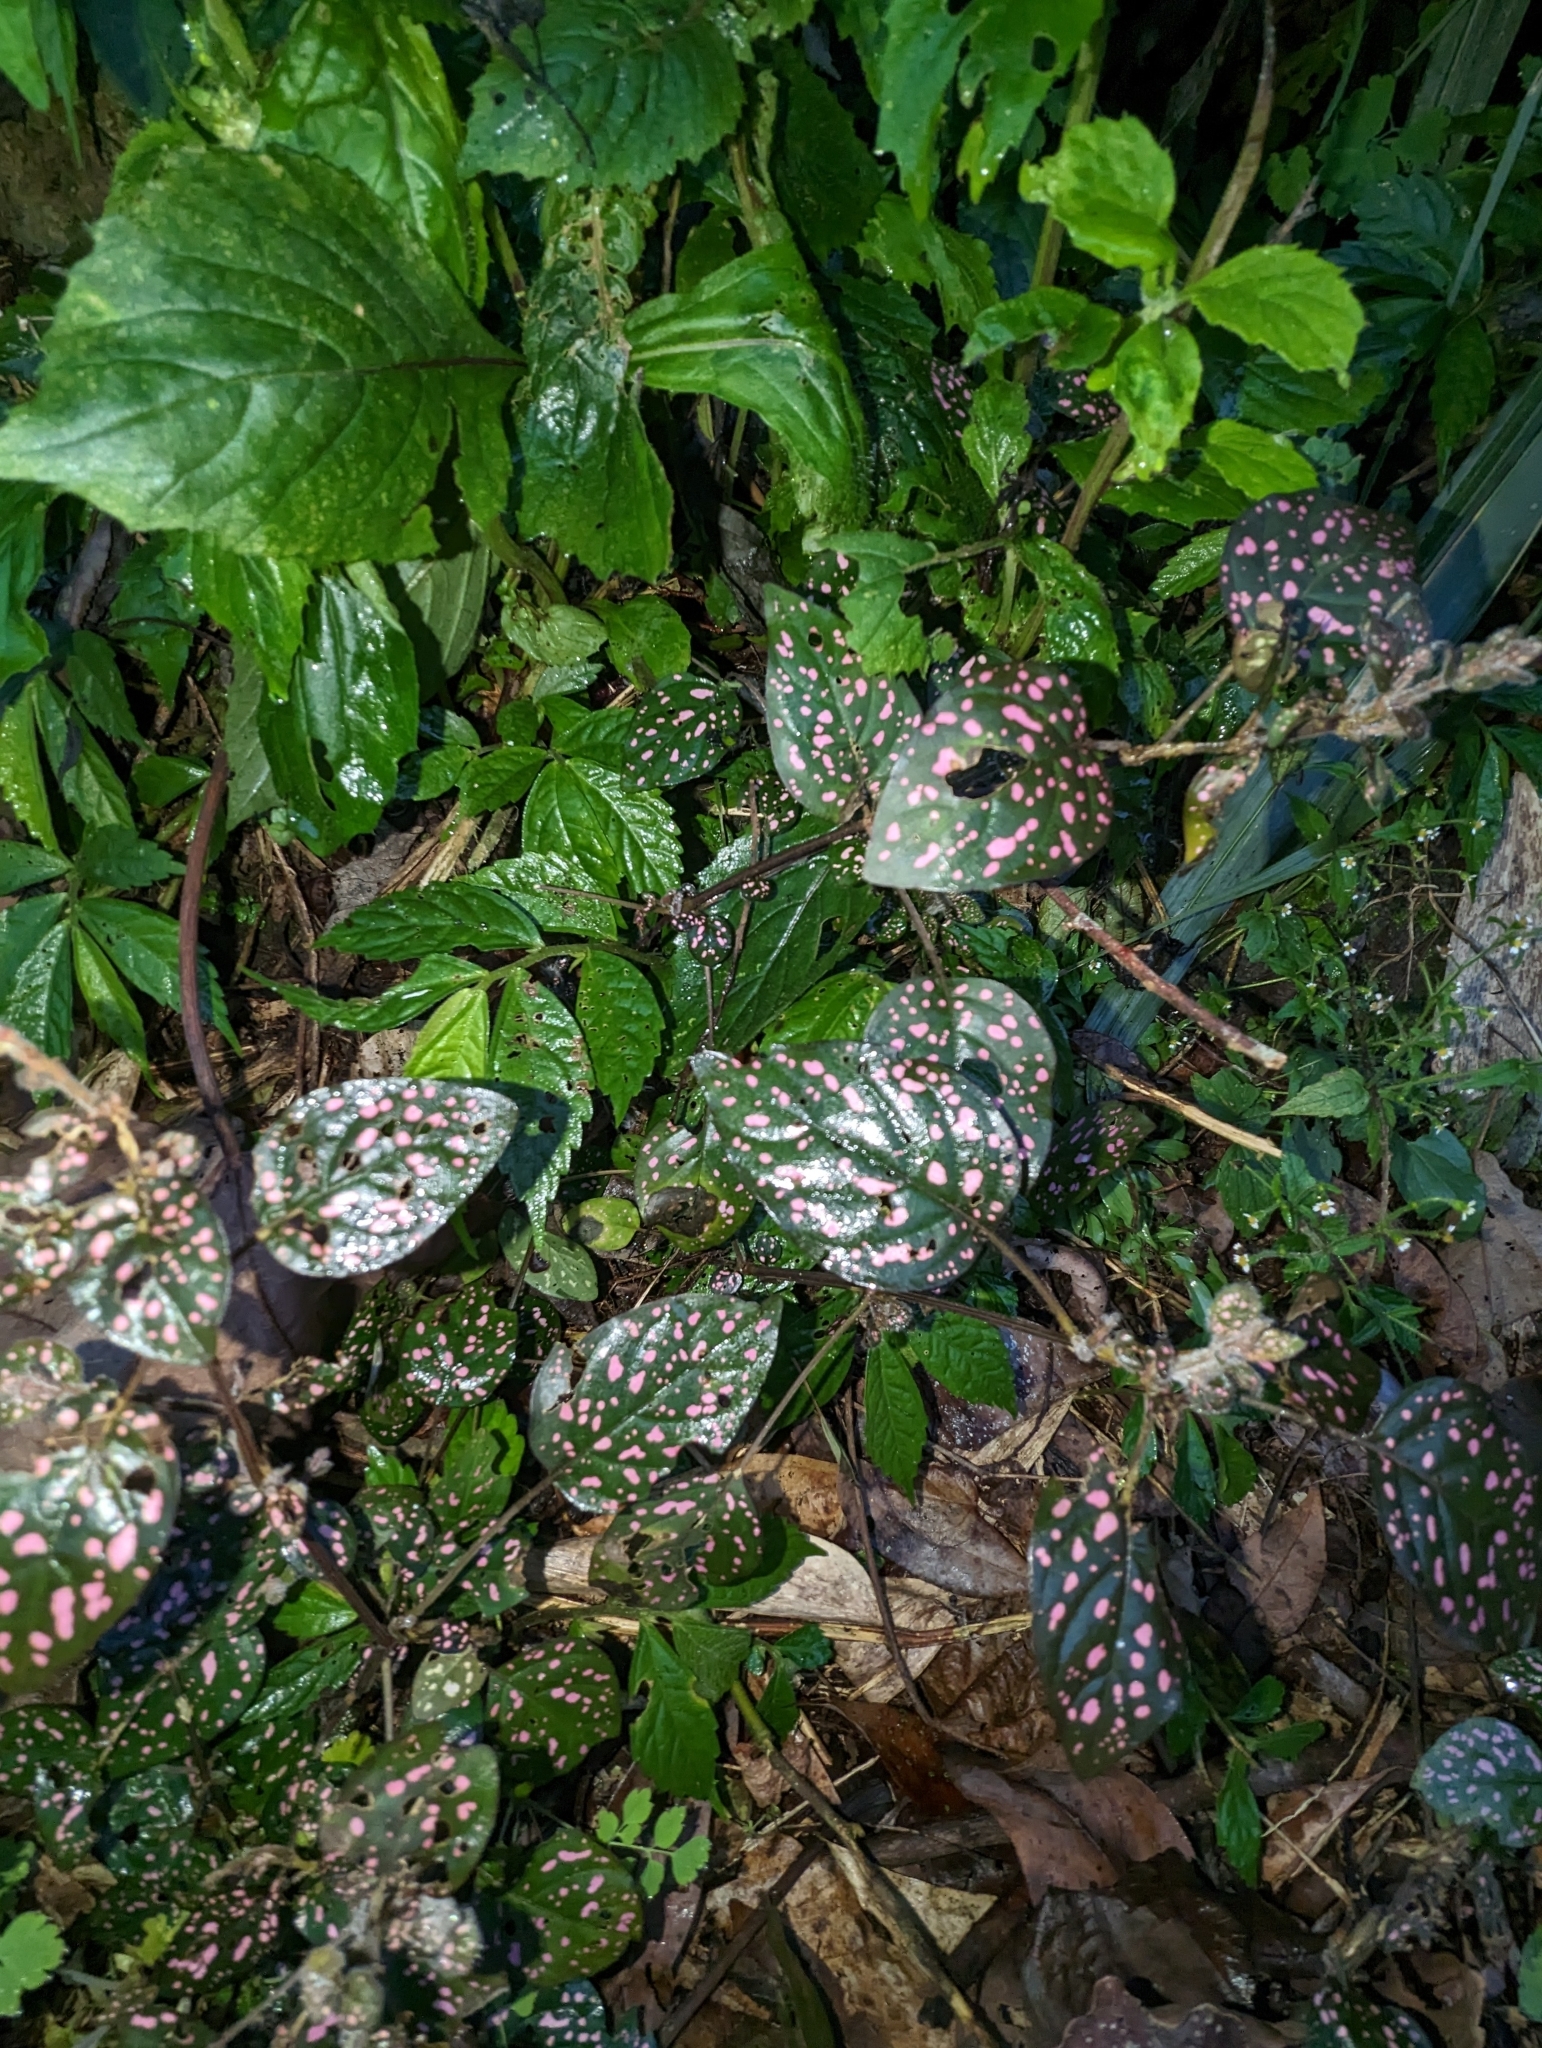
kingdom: Plantae
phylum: Tracheophyta
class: Magnoliopsida
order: Lamiales
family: Acanthaceae
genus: Hypoestes
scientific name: Hypoestes phyllostachya
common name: Polkadot-plant
